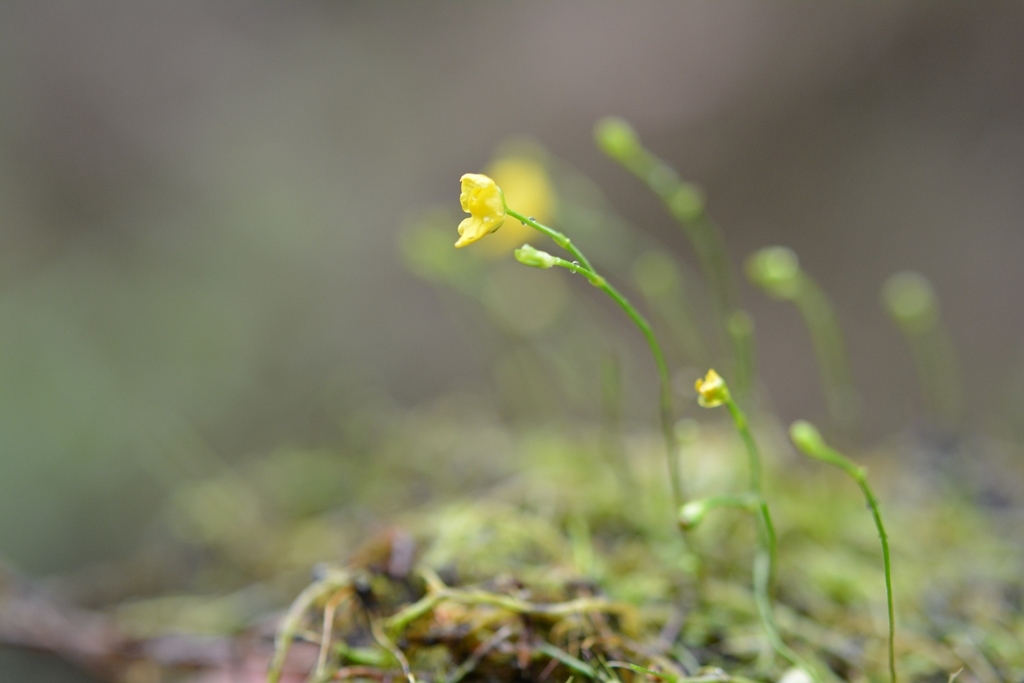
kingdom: Plantae
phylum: Tracheophyta
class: Magnoliopsida
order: Lamiales
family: Lentibulariaceae
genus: Utricularia
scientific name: Utricularia gibba
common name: Humped bladderwort
